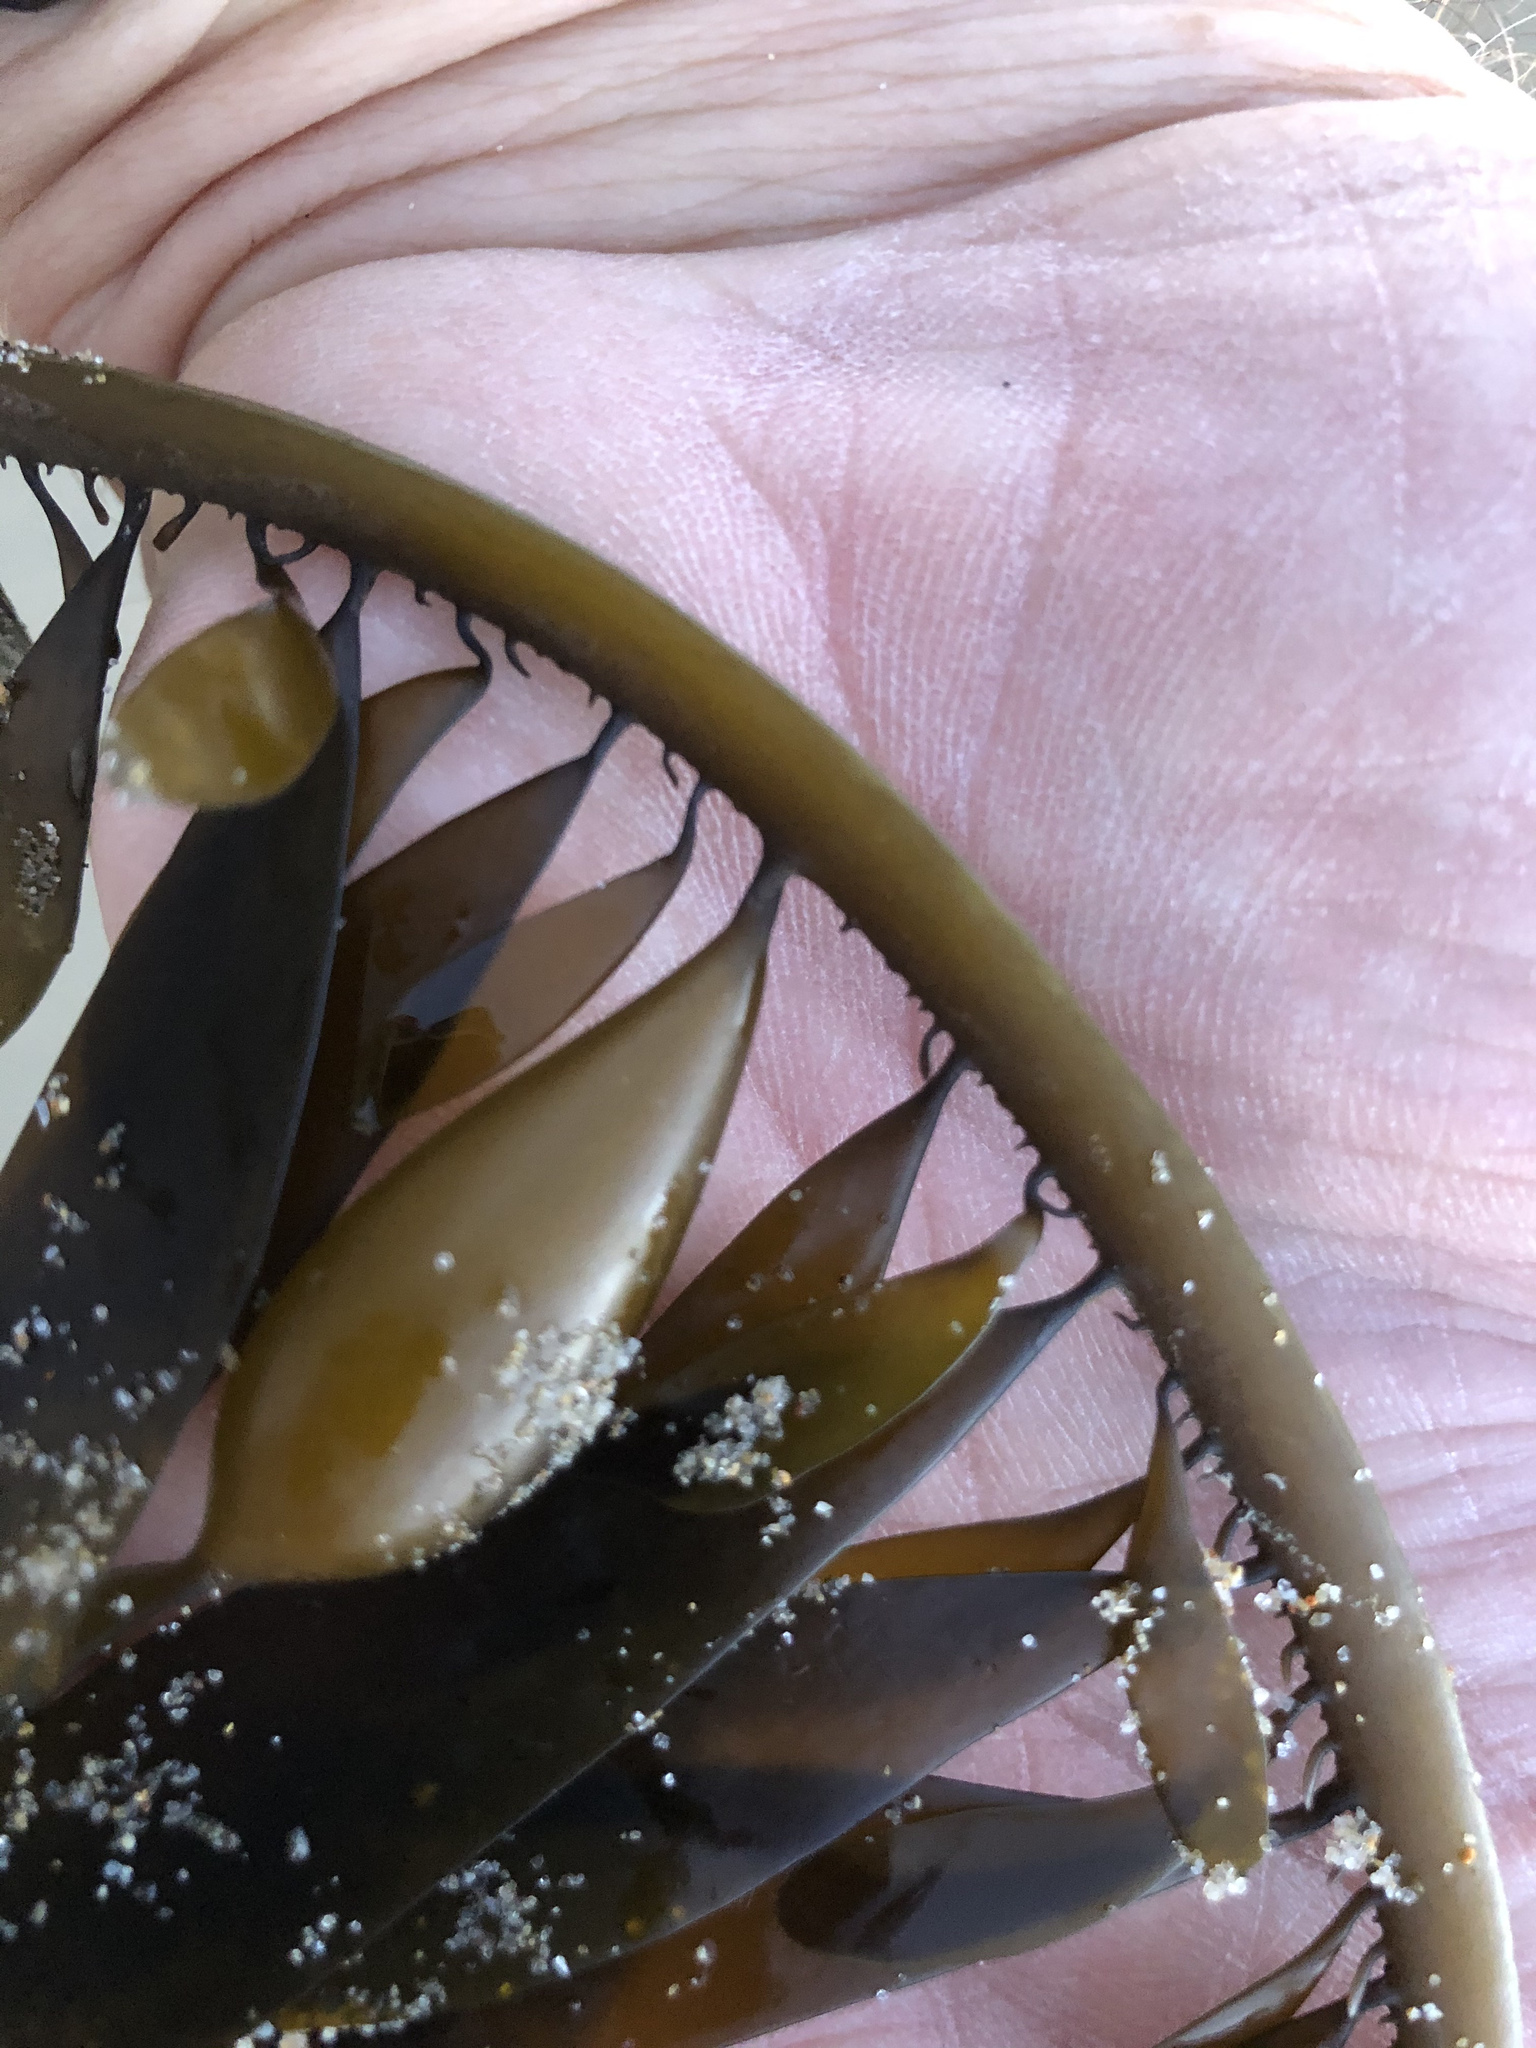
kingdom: Chromista
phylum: Ochrophyta
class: Phaeophyceae
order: Laminariales
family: Lessoniaceae
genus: Egregia
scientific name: Egregia menziesii
